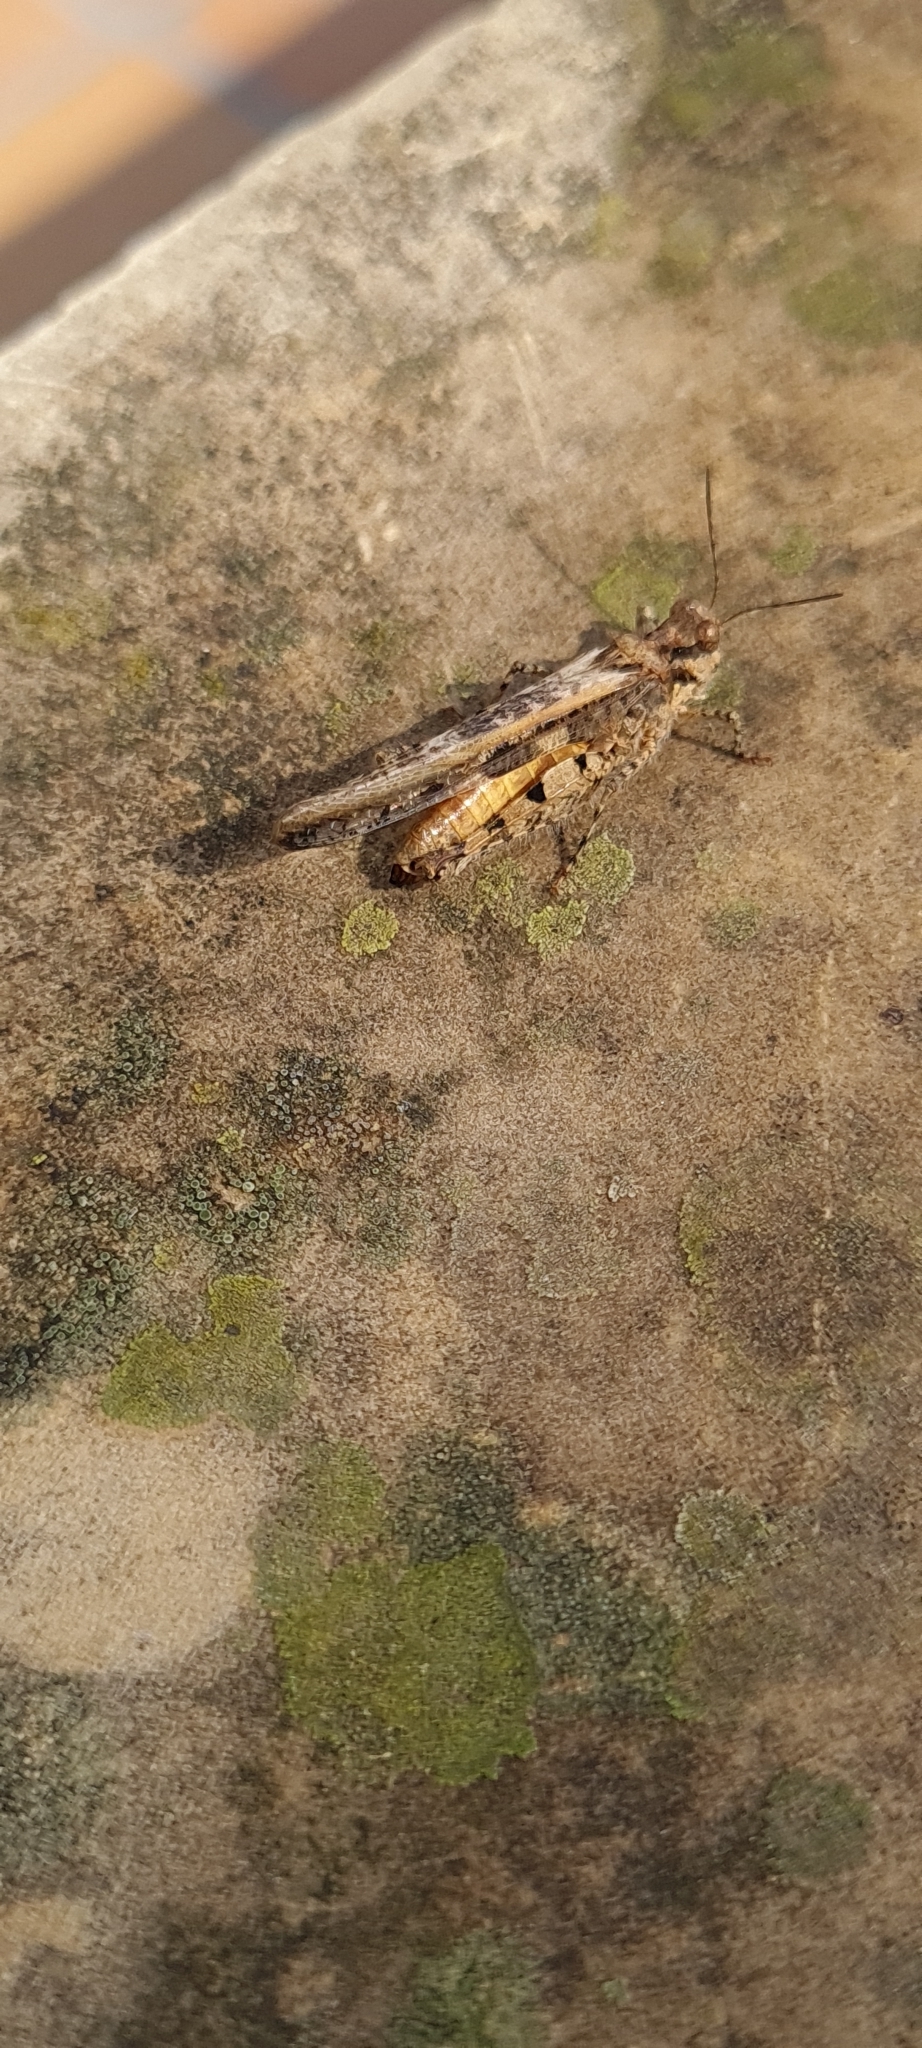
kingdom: Animalia
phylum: Arthropoda
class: Insecta
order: Orthoptera
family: Acrididae
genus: Acrotylus
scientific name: Acrotylus patruelis
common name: Slender burrowing grasshopper
